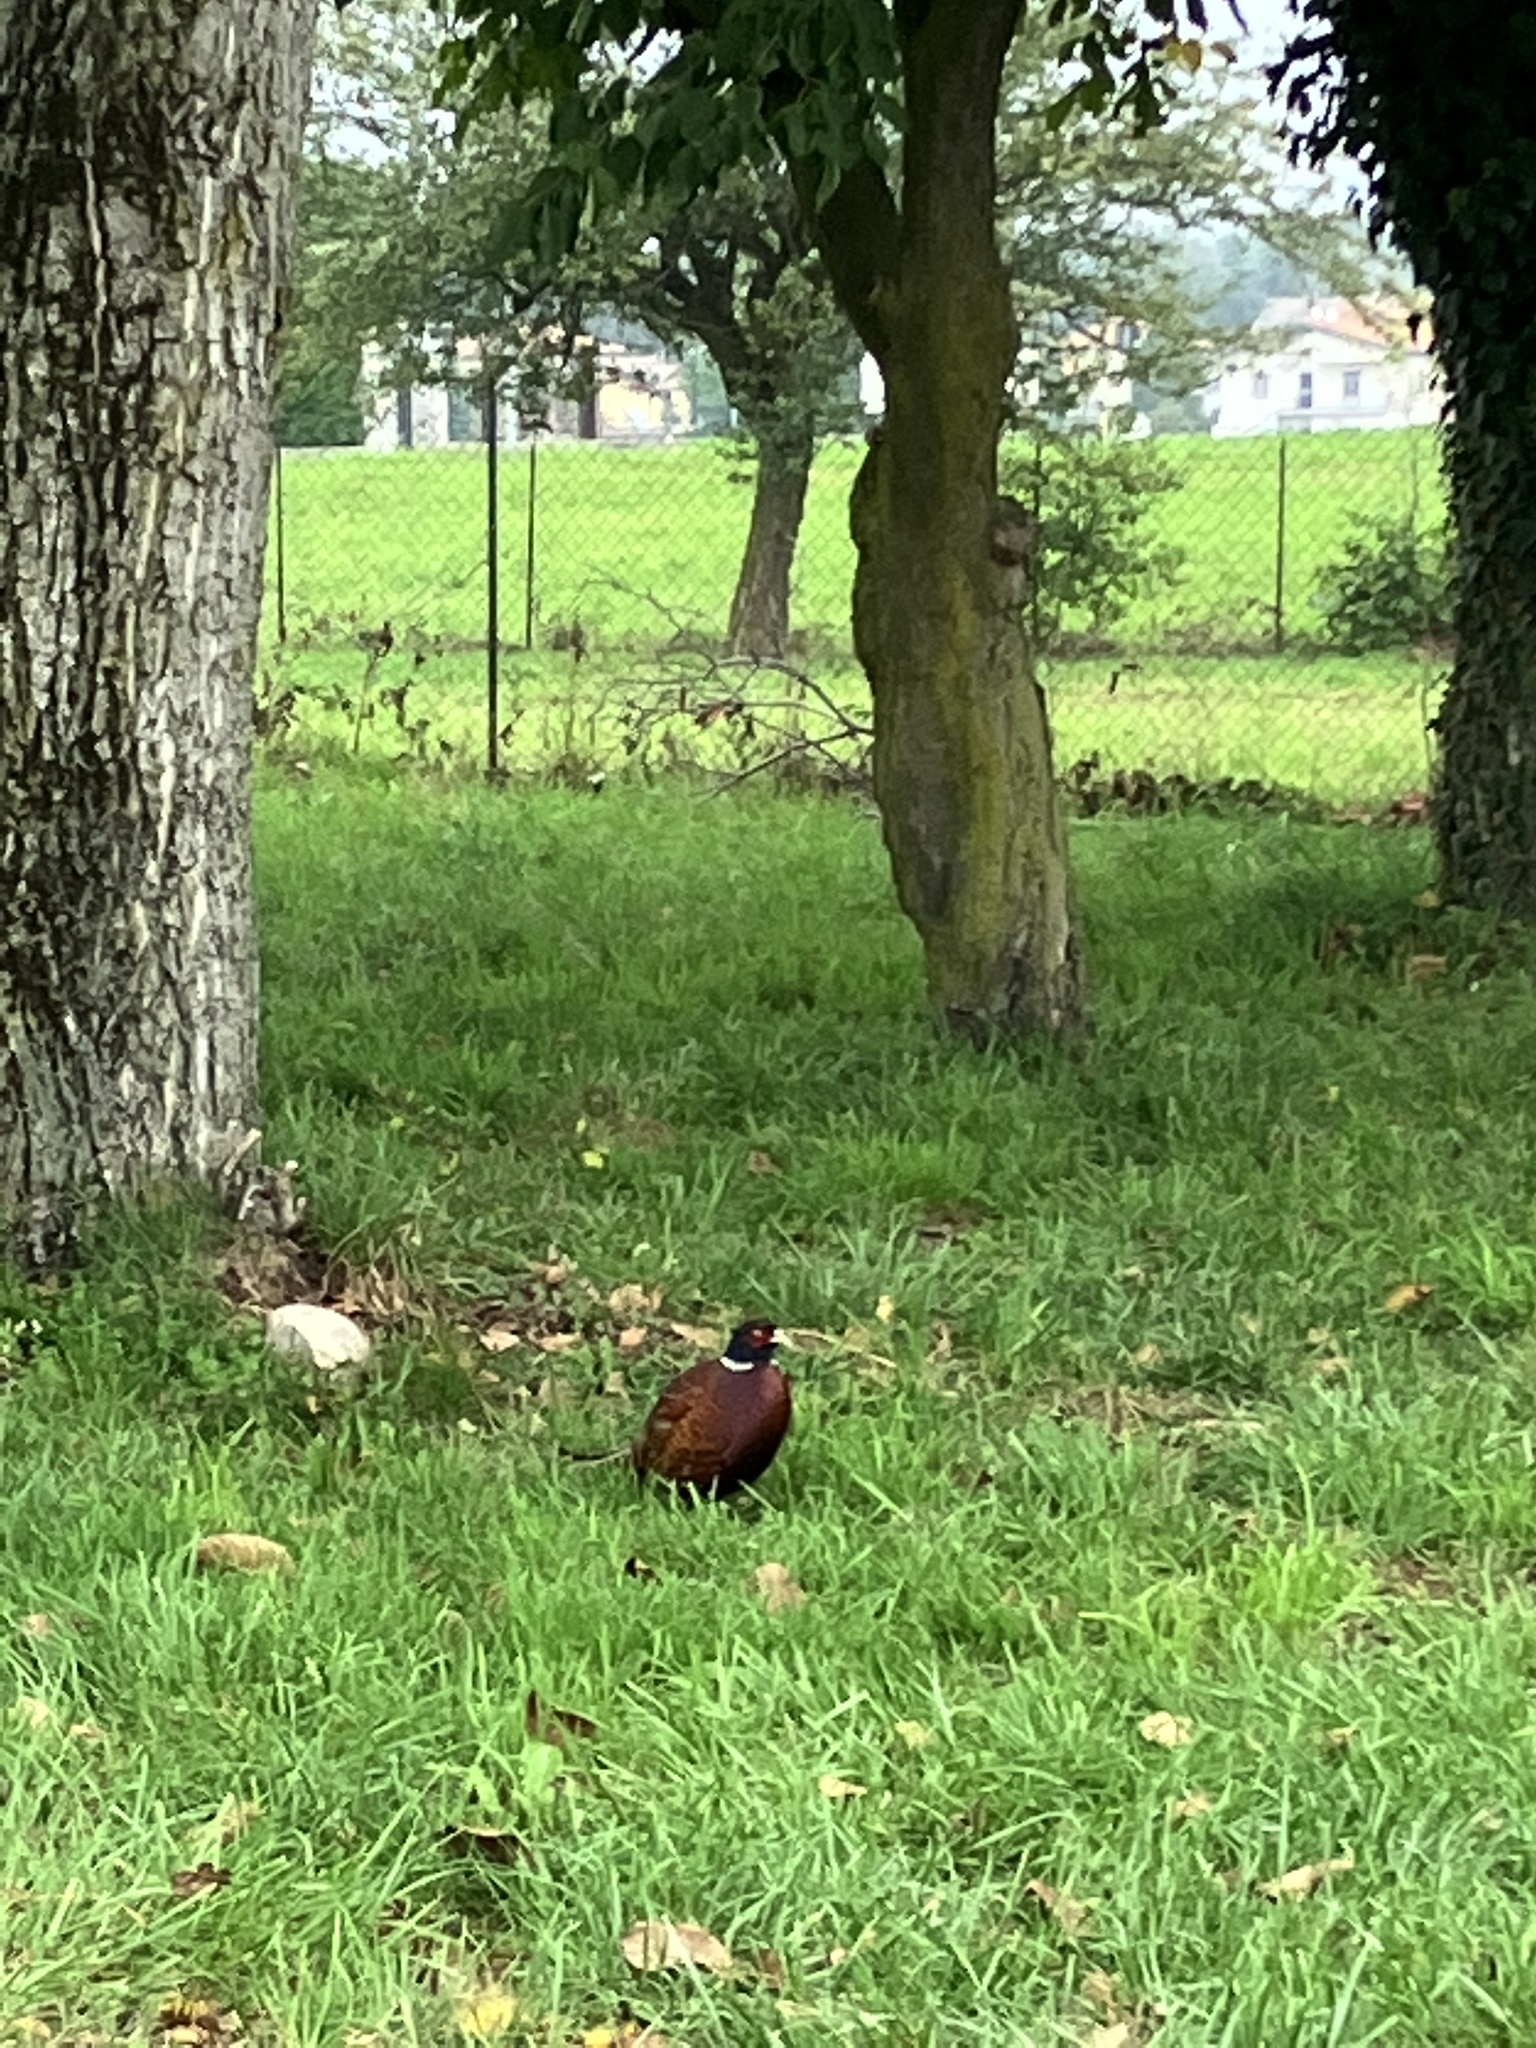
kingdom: Animalia
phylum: Chordata
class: Aves
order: Galliformes
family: Phasianidae
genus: Phasianus
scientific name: Phasianus colchicus
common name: Common pheasant
